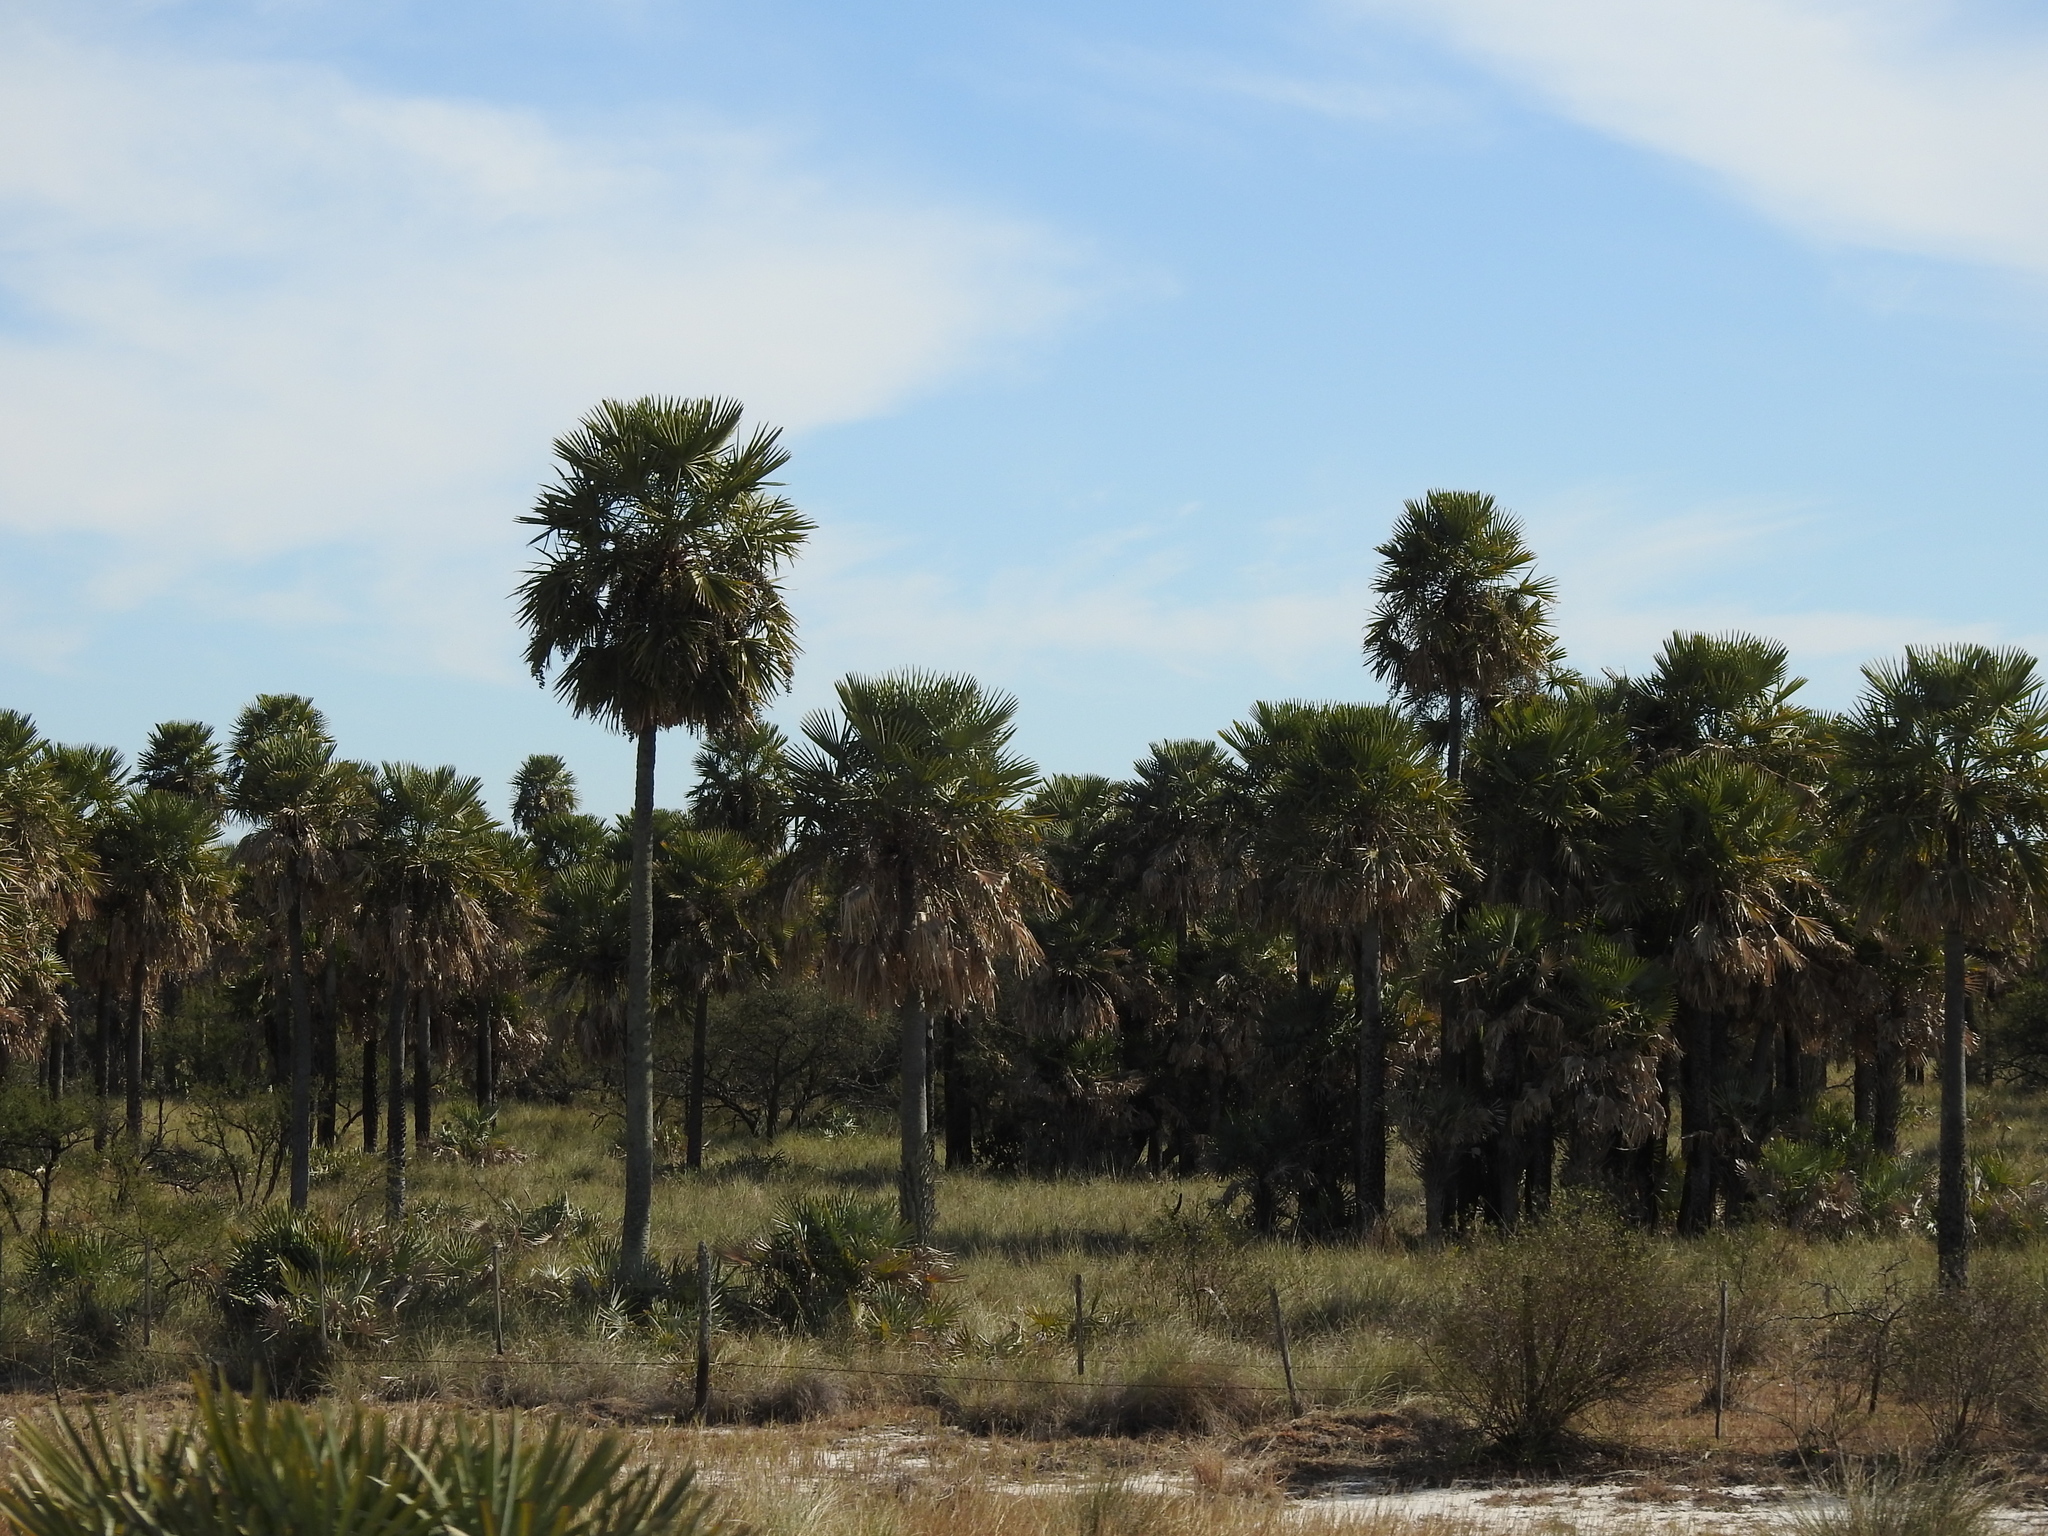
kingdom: Plantae
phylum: Tracheophyta
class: Liliopsida
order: Arecales
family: Arecaceae
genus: Copernicia
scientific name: Copernicia alba
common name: Caranday palm
